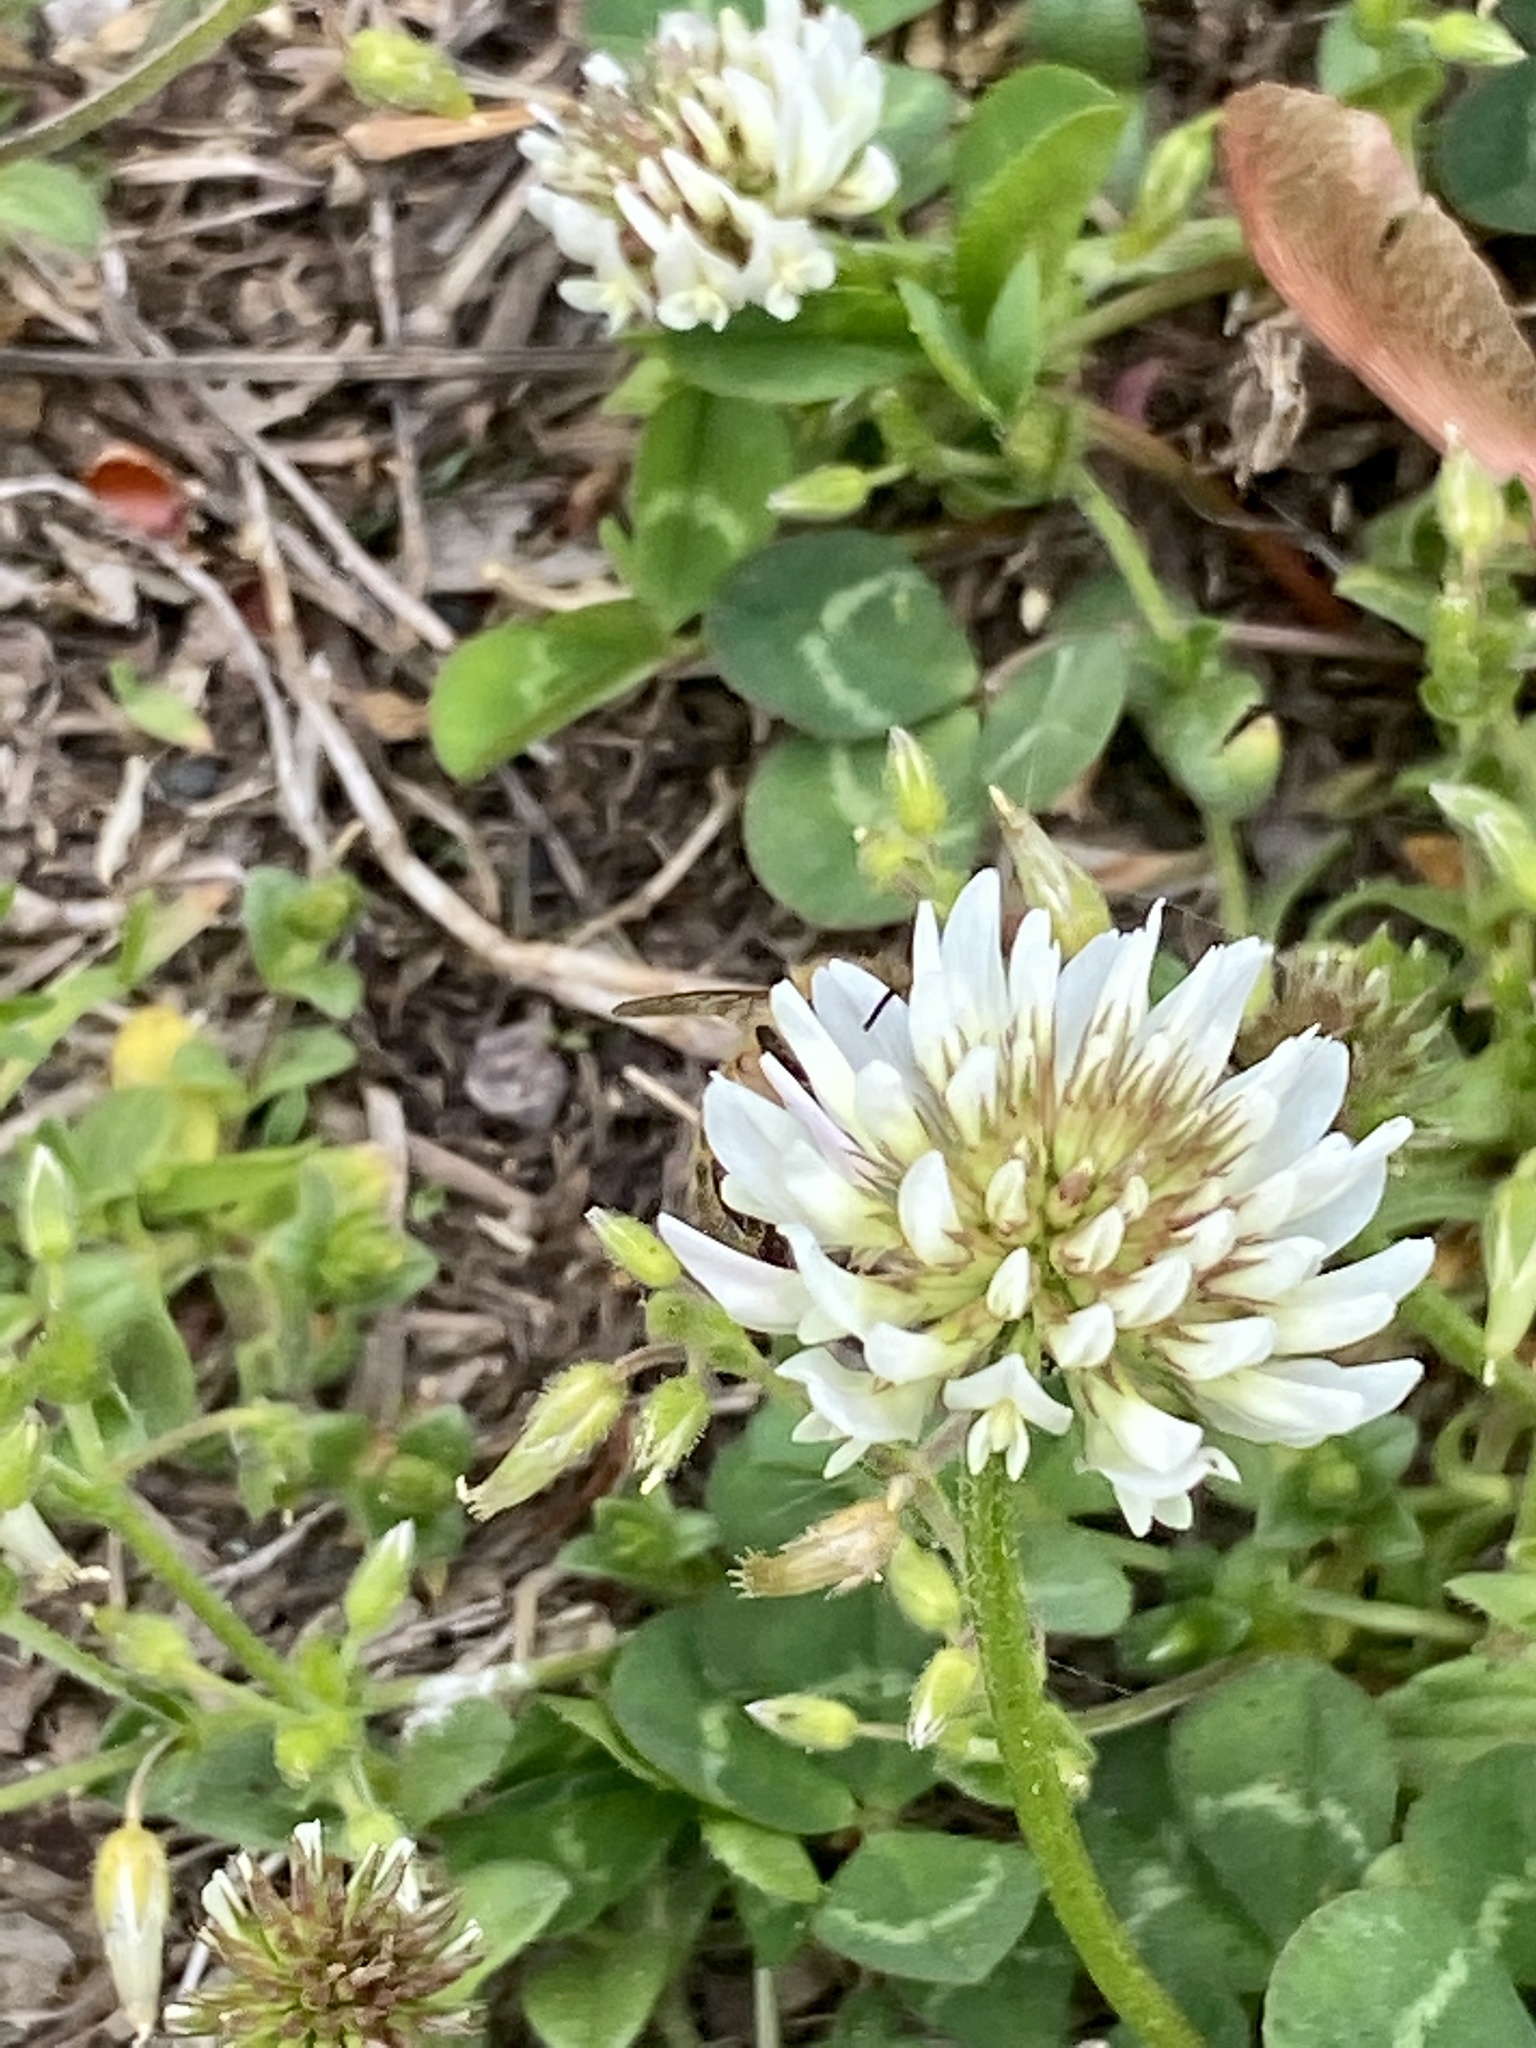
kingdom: Plantae
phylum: Tracheophyta
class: Magnoliopsida
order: Fabales
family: Fabaceae
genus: Trifolium
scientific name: Trifolium repens
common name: White clover
